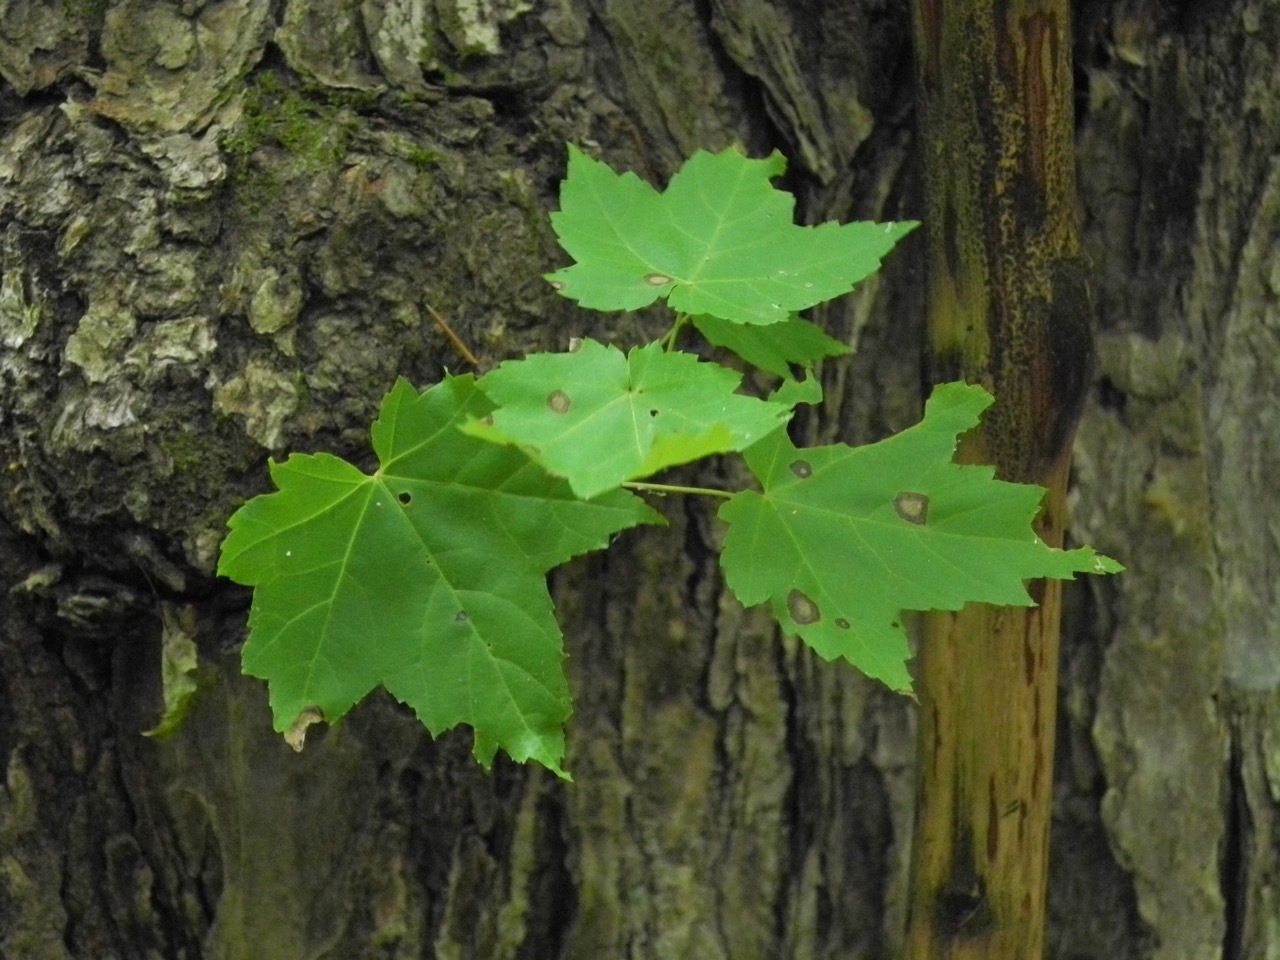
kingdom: Plantae
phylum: Tracheophyta
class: Magnoliopsida
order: Sapindales
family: Sapindaceae
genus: Acer
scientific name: Acer freemanii
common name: Freeman maple
